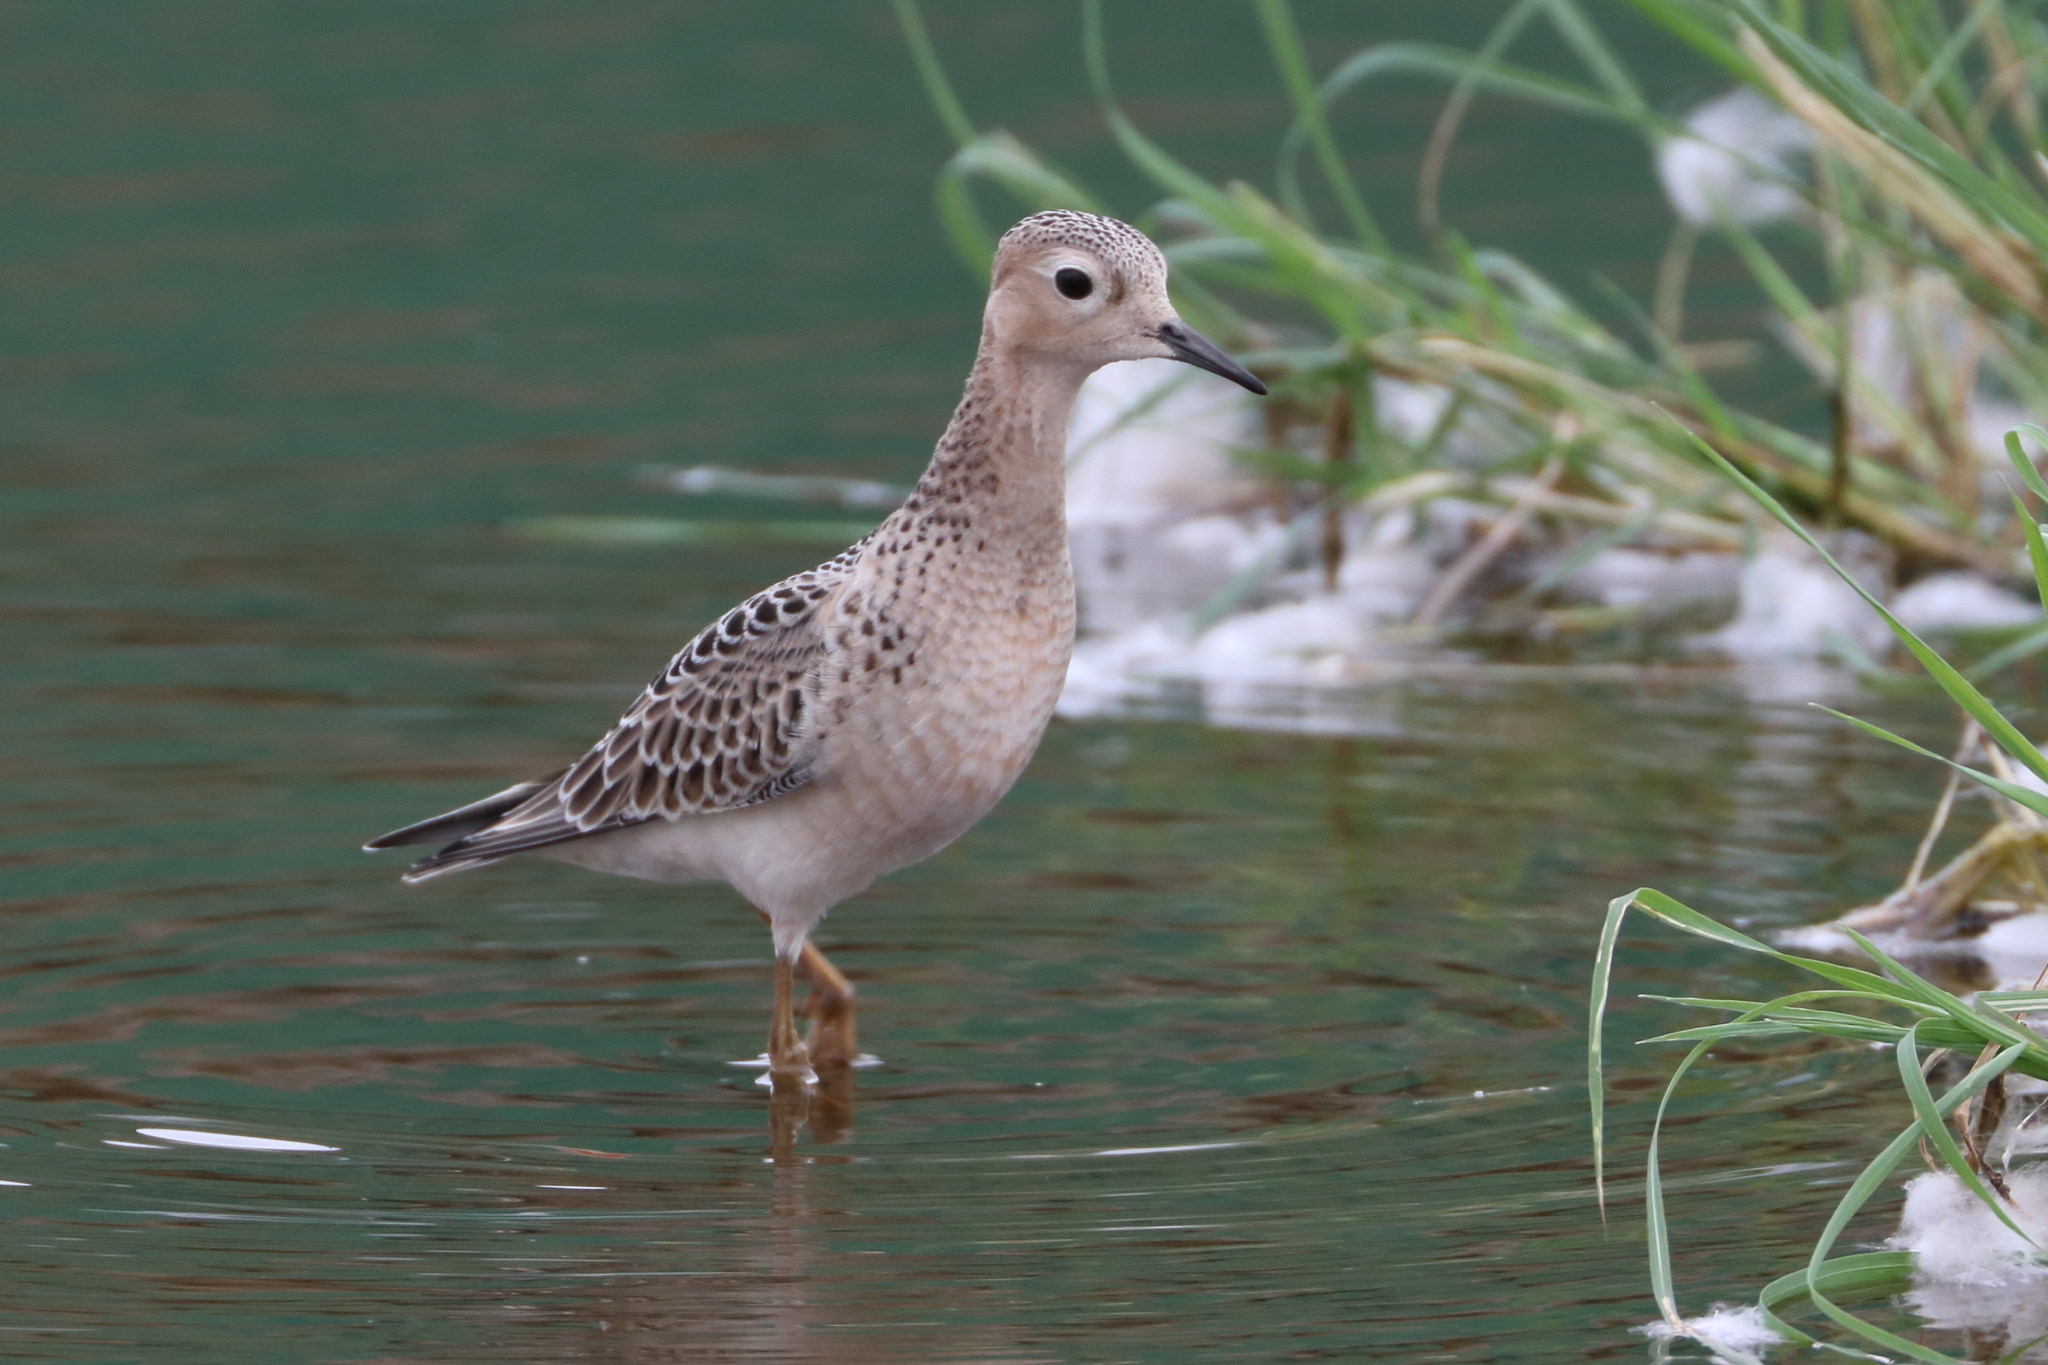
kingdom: Animalia
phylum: Chordata
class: Aves
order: Charadriiformes
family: Scolopacidae
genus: Calidris
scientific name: Calidris subruficollis
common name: Buff-breasted sandpiper
